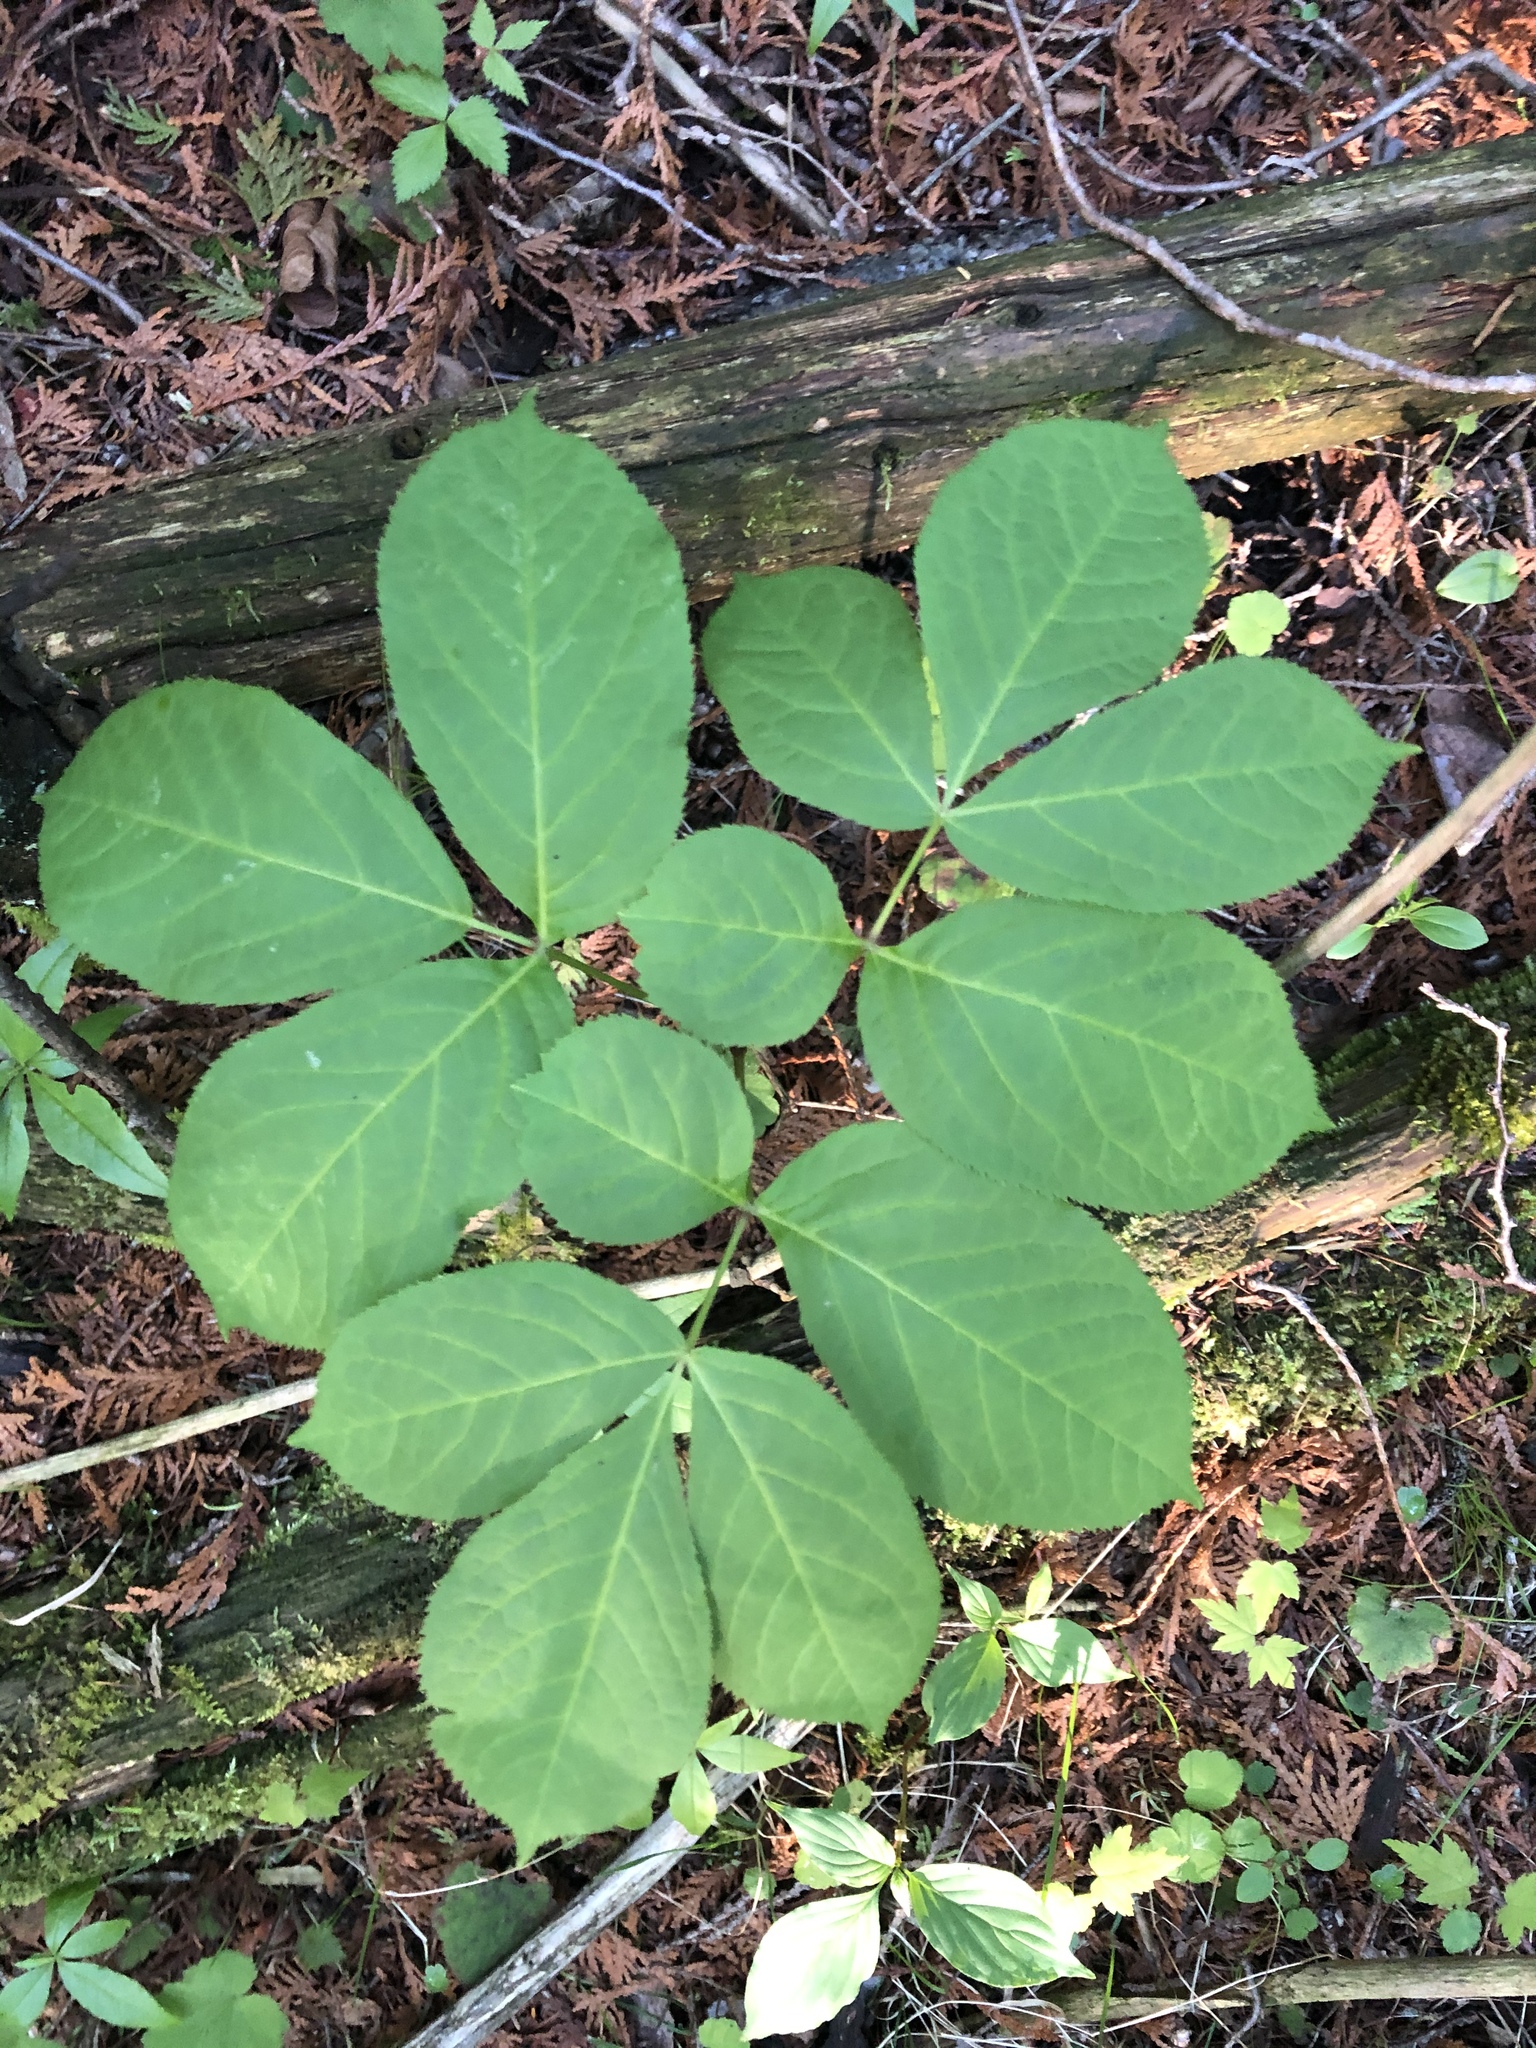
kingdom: Plantae
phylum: Tracheophyta
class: Magnoliopsida
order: Apiales
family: Araliaceae
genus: Aralia
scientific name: Aralia nudicaulis
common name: Wild sarsaparilla
